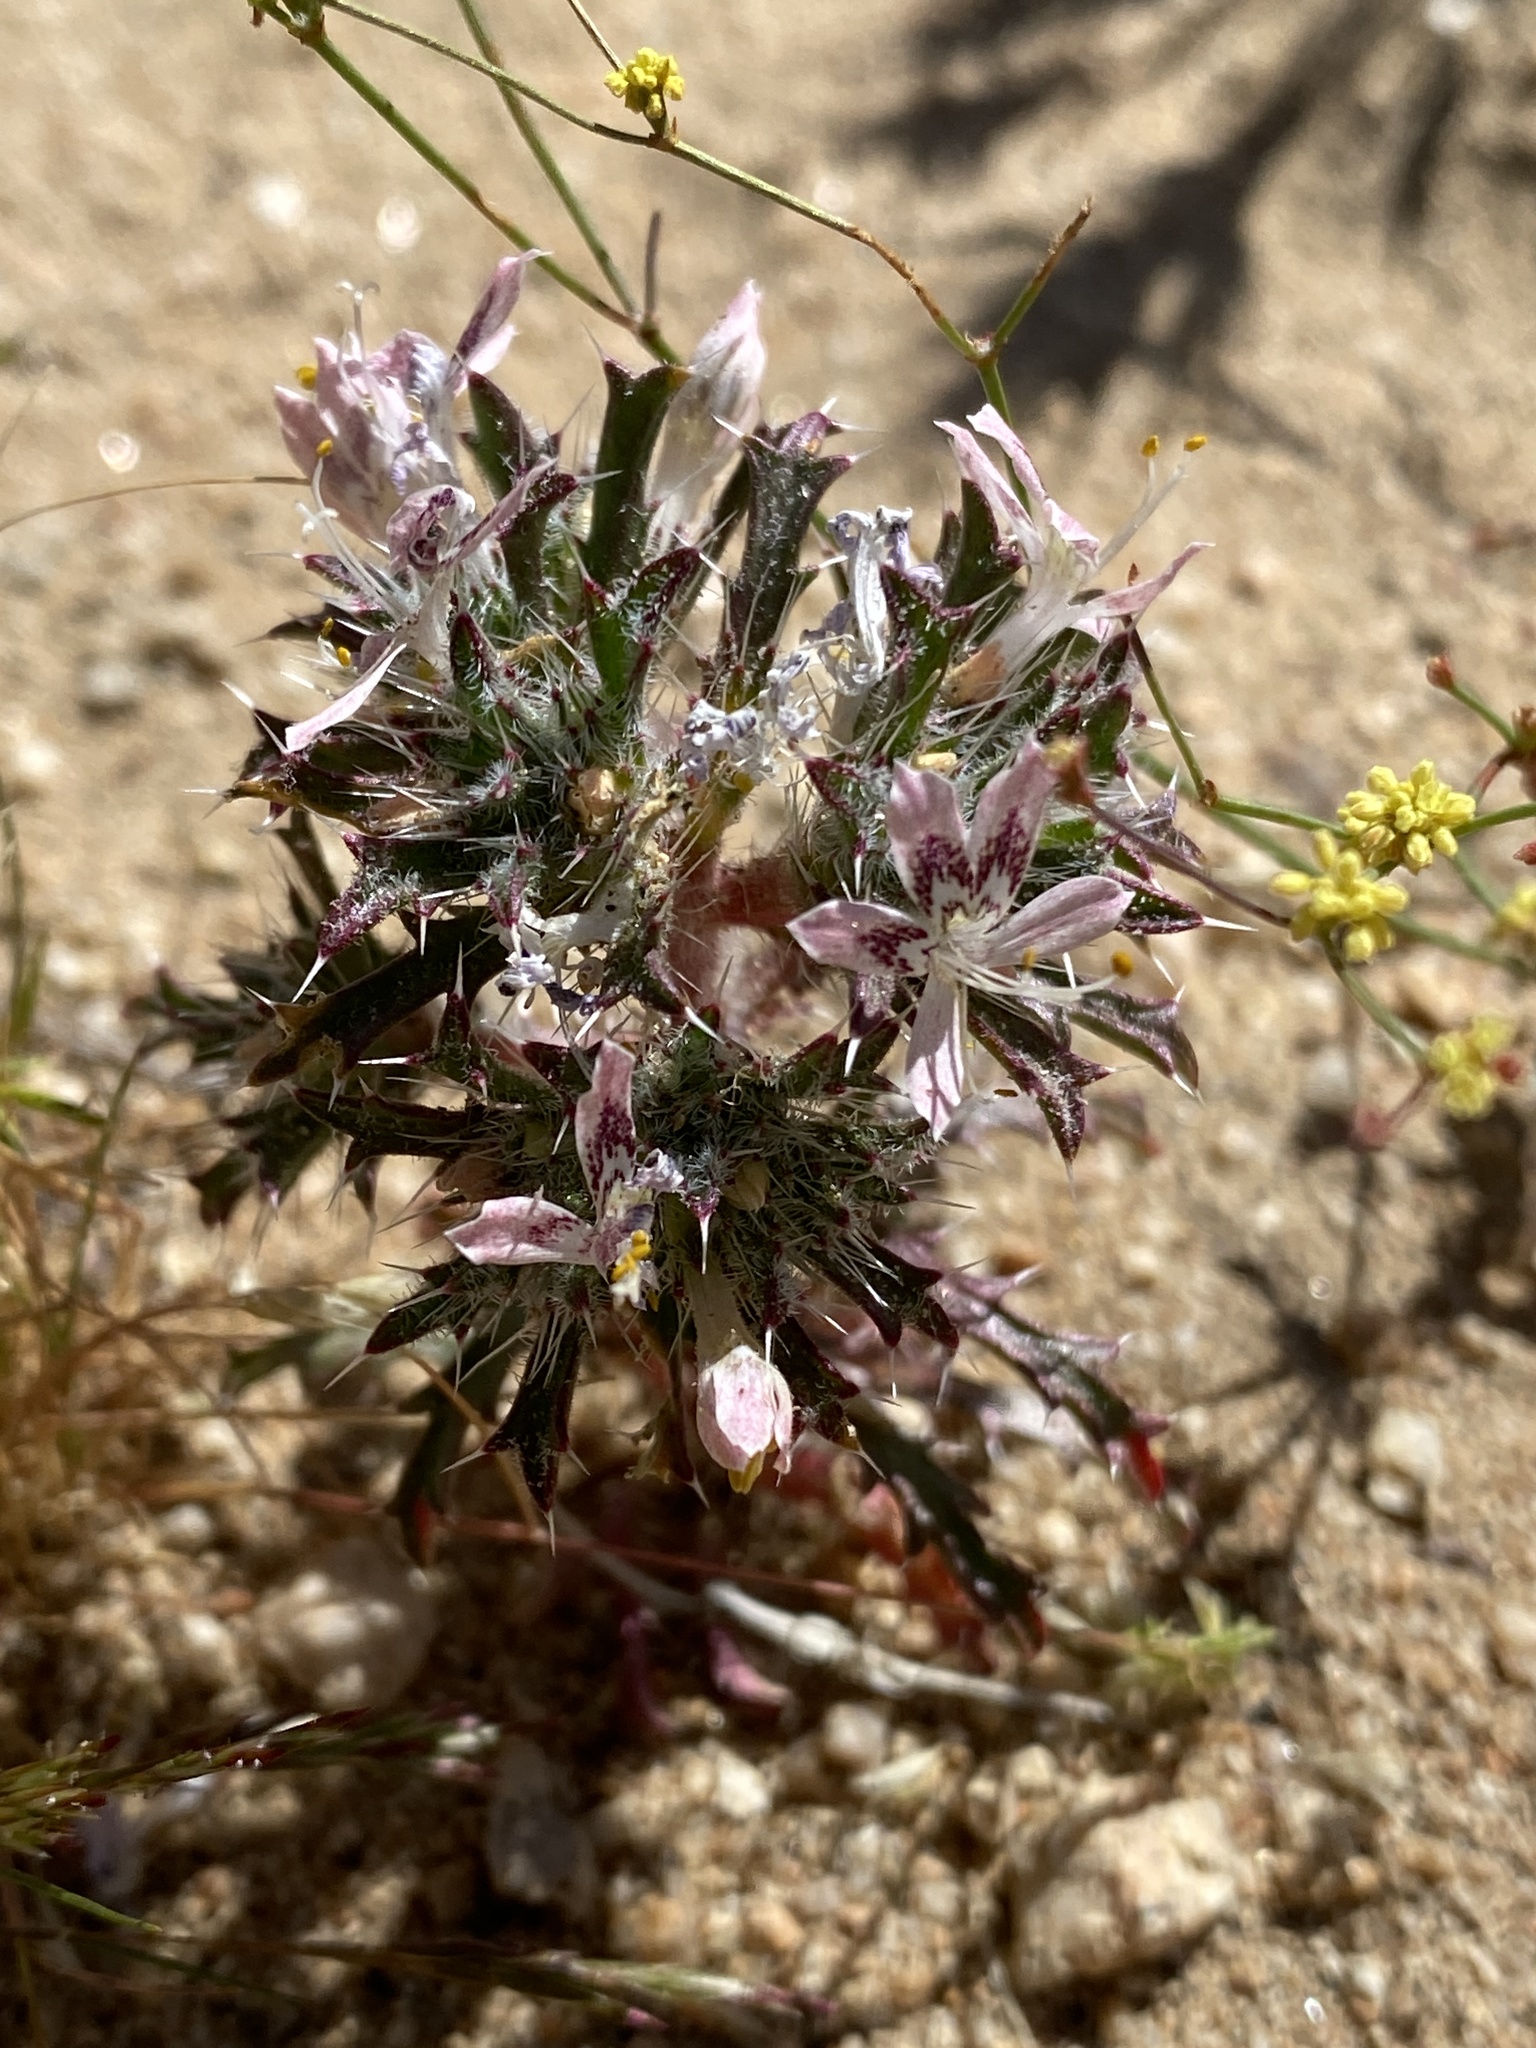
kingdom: Plantae
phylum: Tracheophyta
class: Magnoliopsida
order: Ericales
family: Polemoniaceae
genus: Loeseliastrum
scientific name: Loeseliastrum matthewsii
